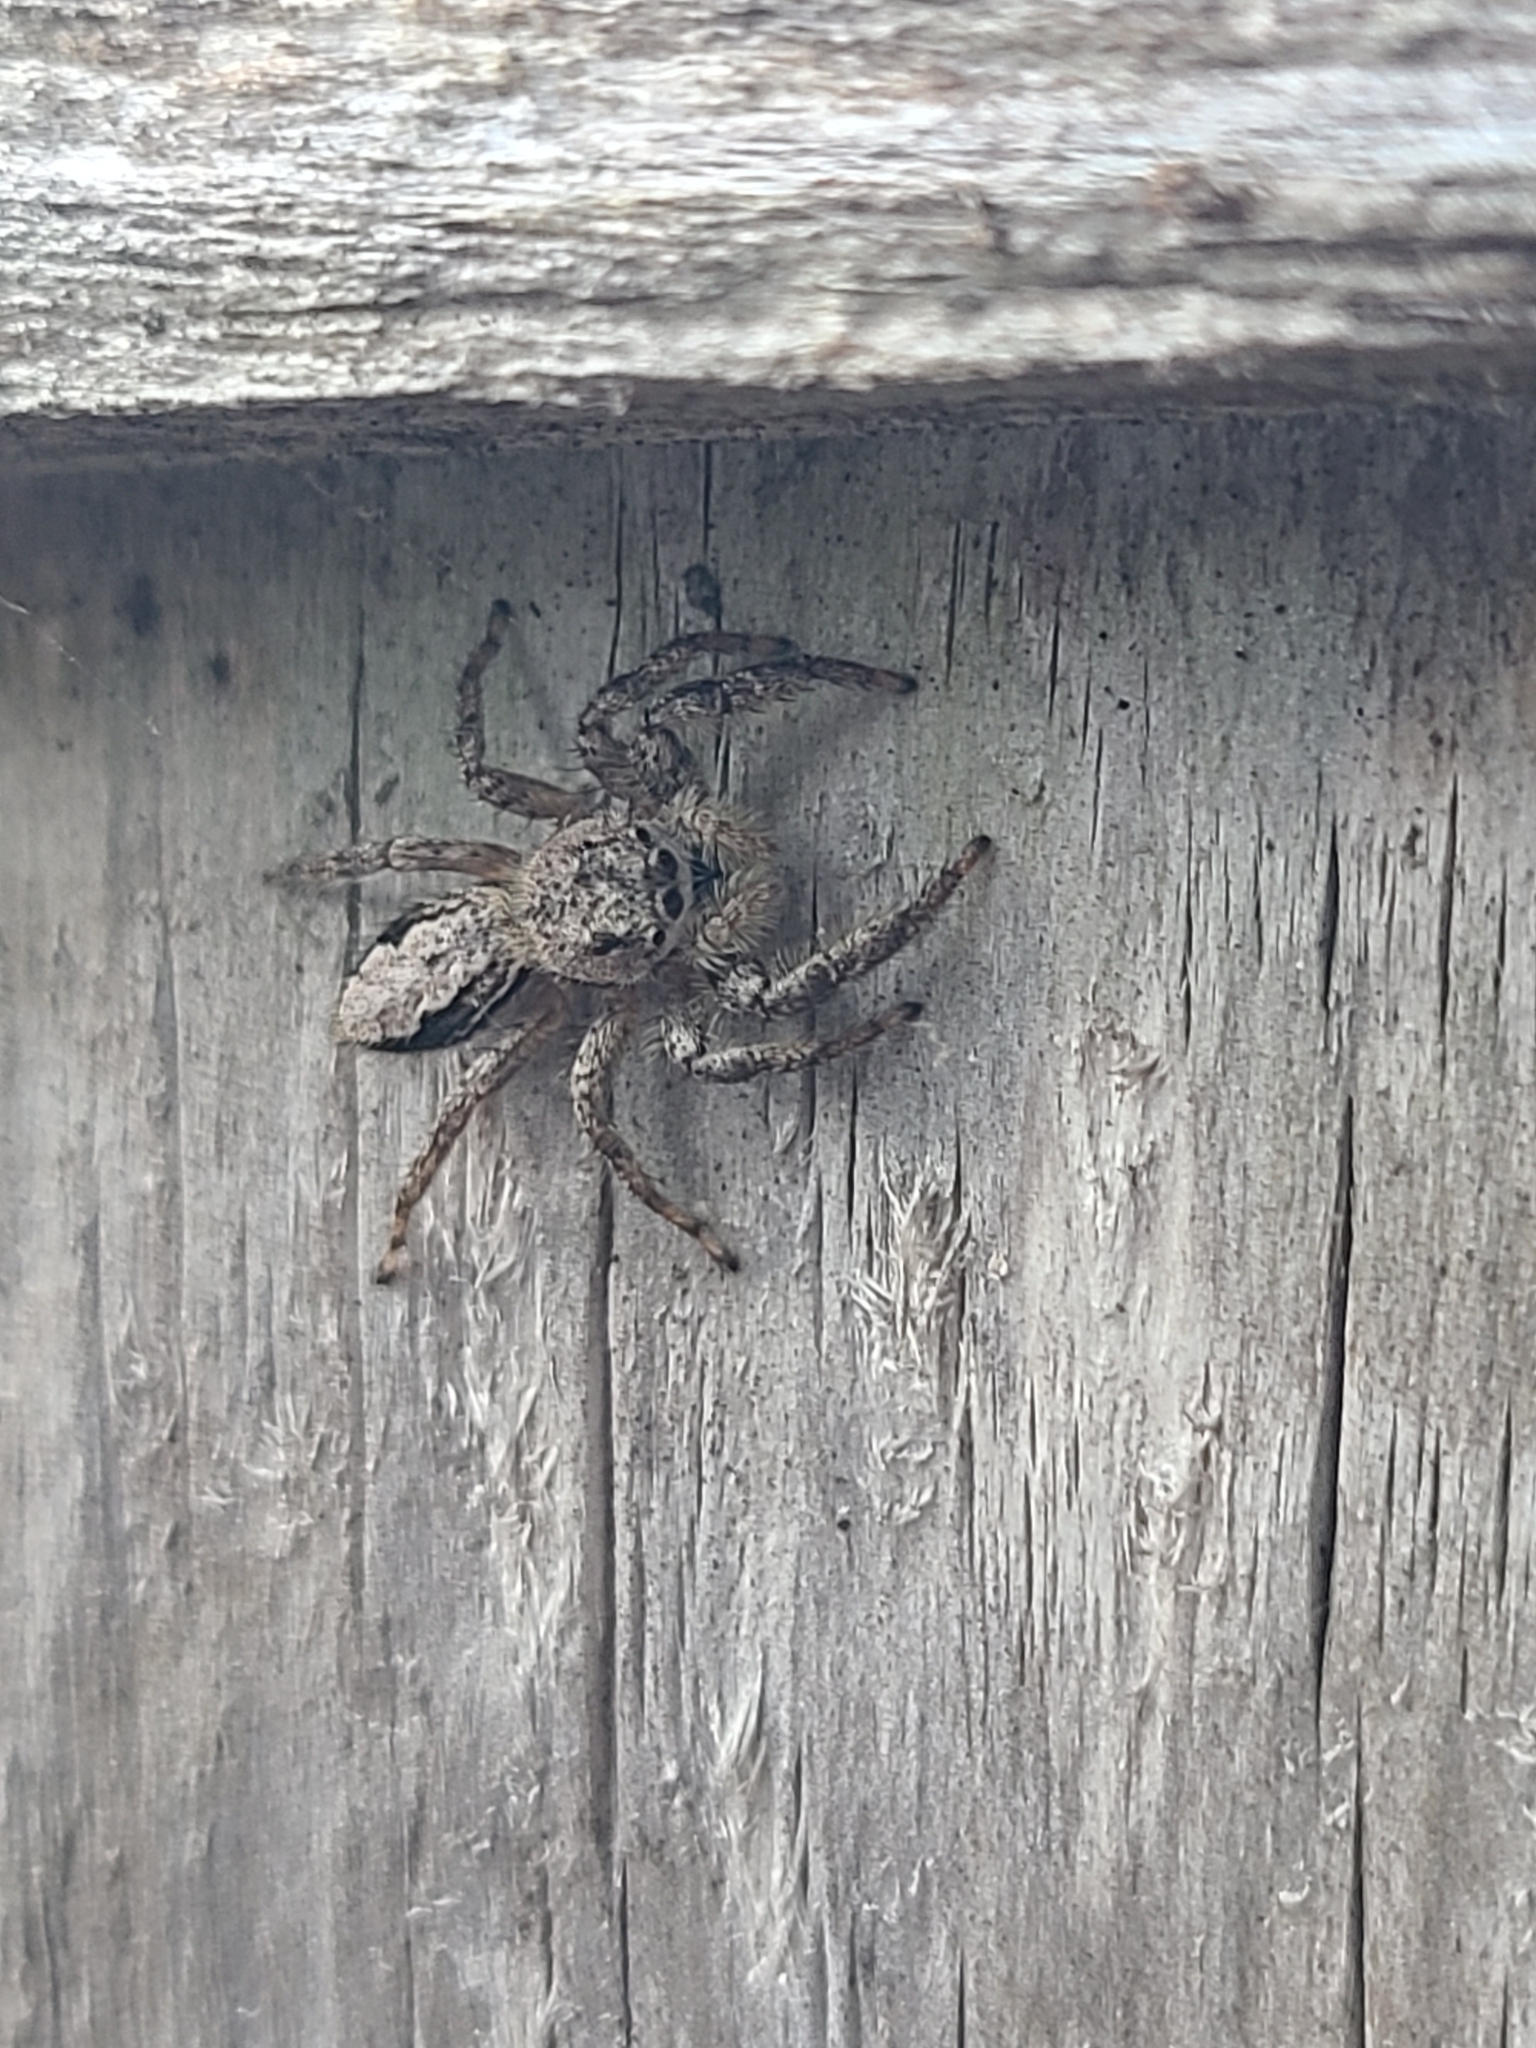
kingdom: Animalia
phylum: Arthropoda
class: Arachnida
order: Araneae
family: Salticidae
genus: Platycryptus
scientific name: Platycryptus undatus
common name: Tan jumping spider
